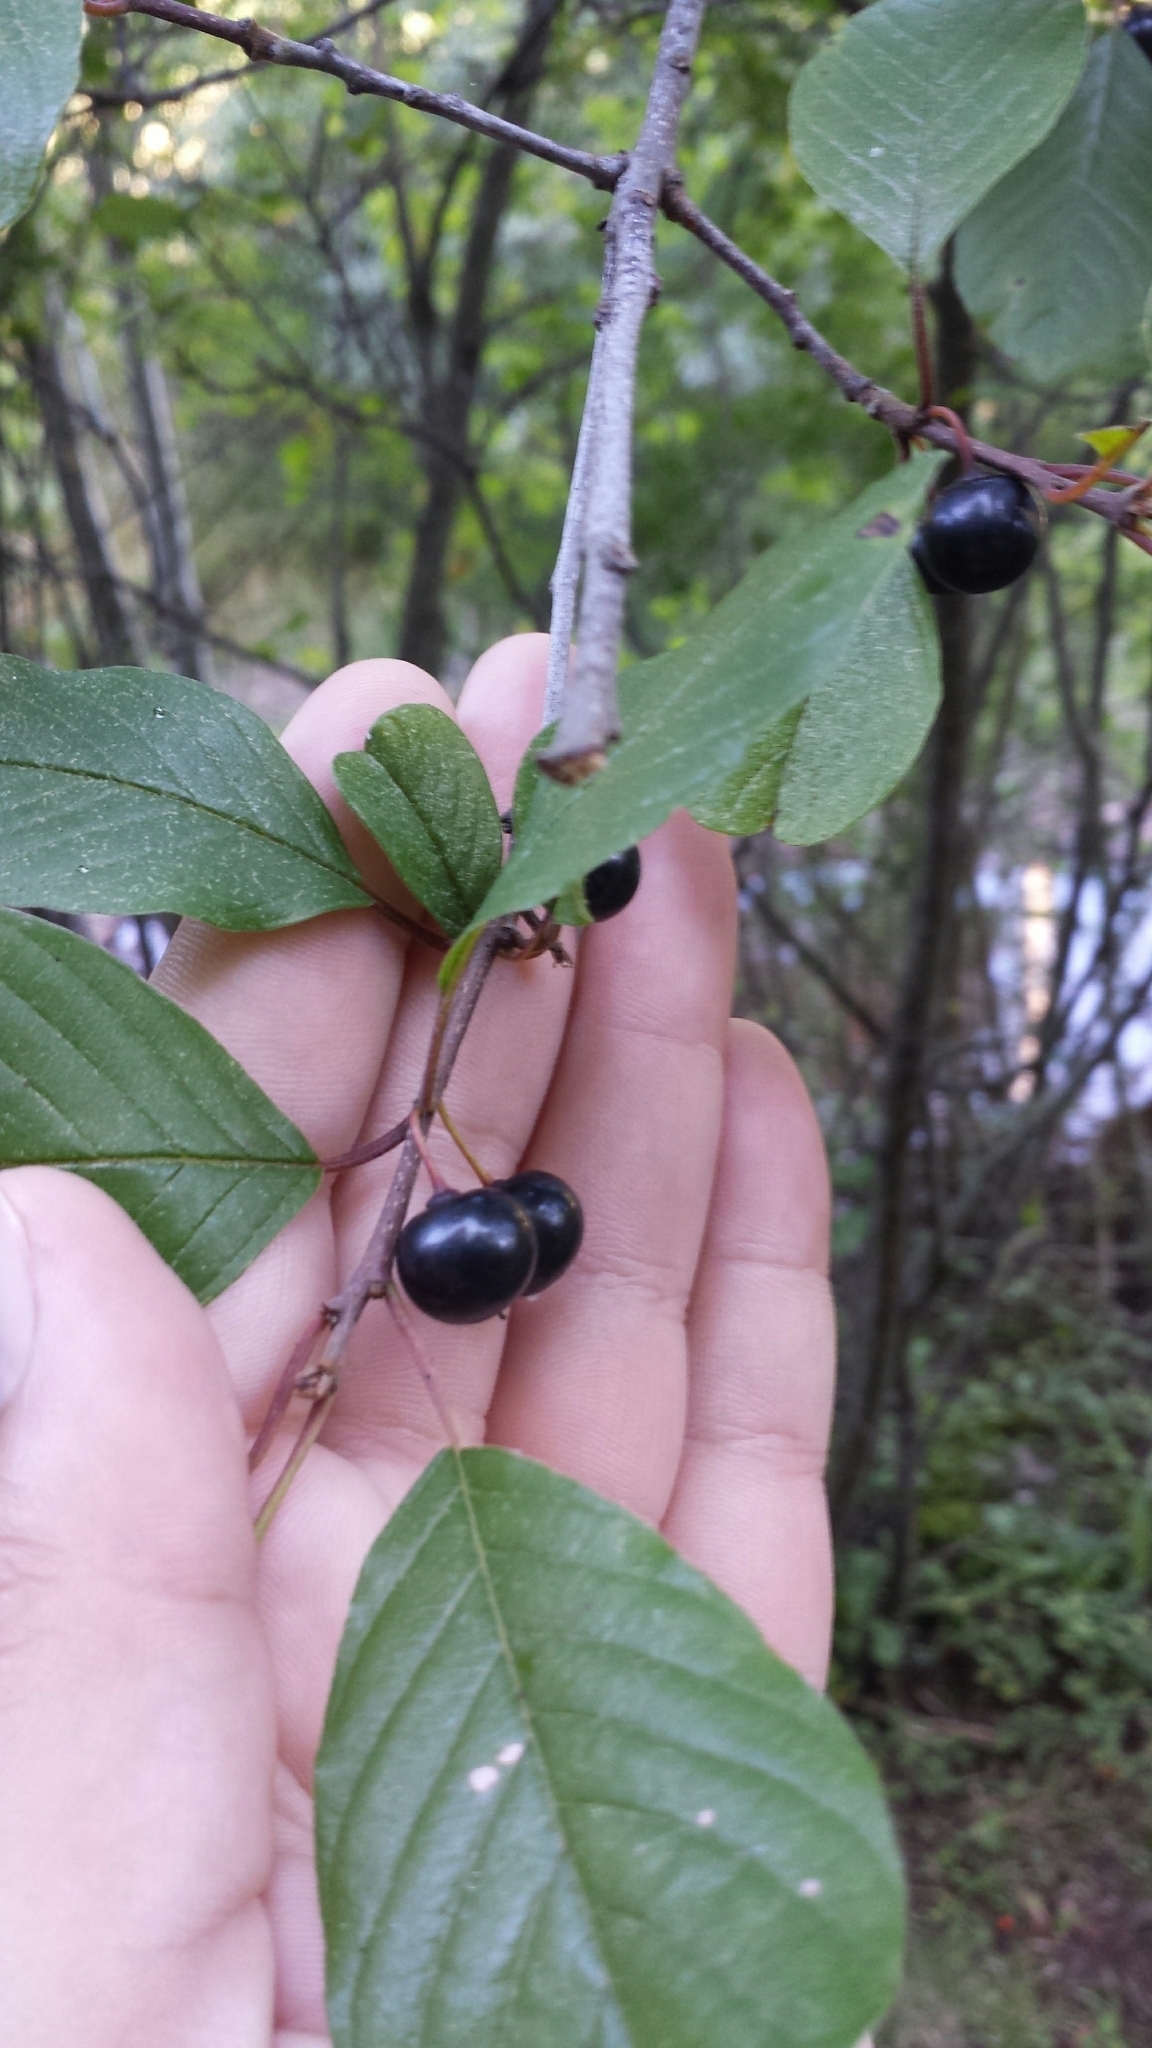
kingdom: Plantae
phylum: Tracheophyta
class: Magnoliopsida
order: Rosales
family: Rhamnaceae
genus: Frangula
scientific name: Frangula alnus
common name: Alder buckthorn
